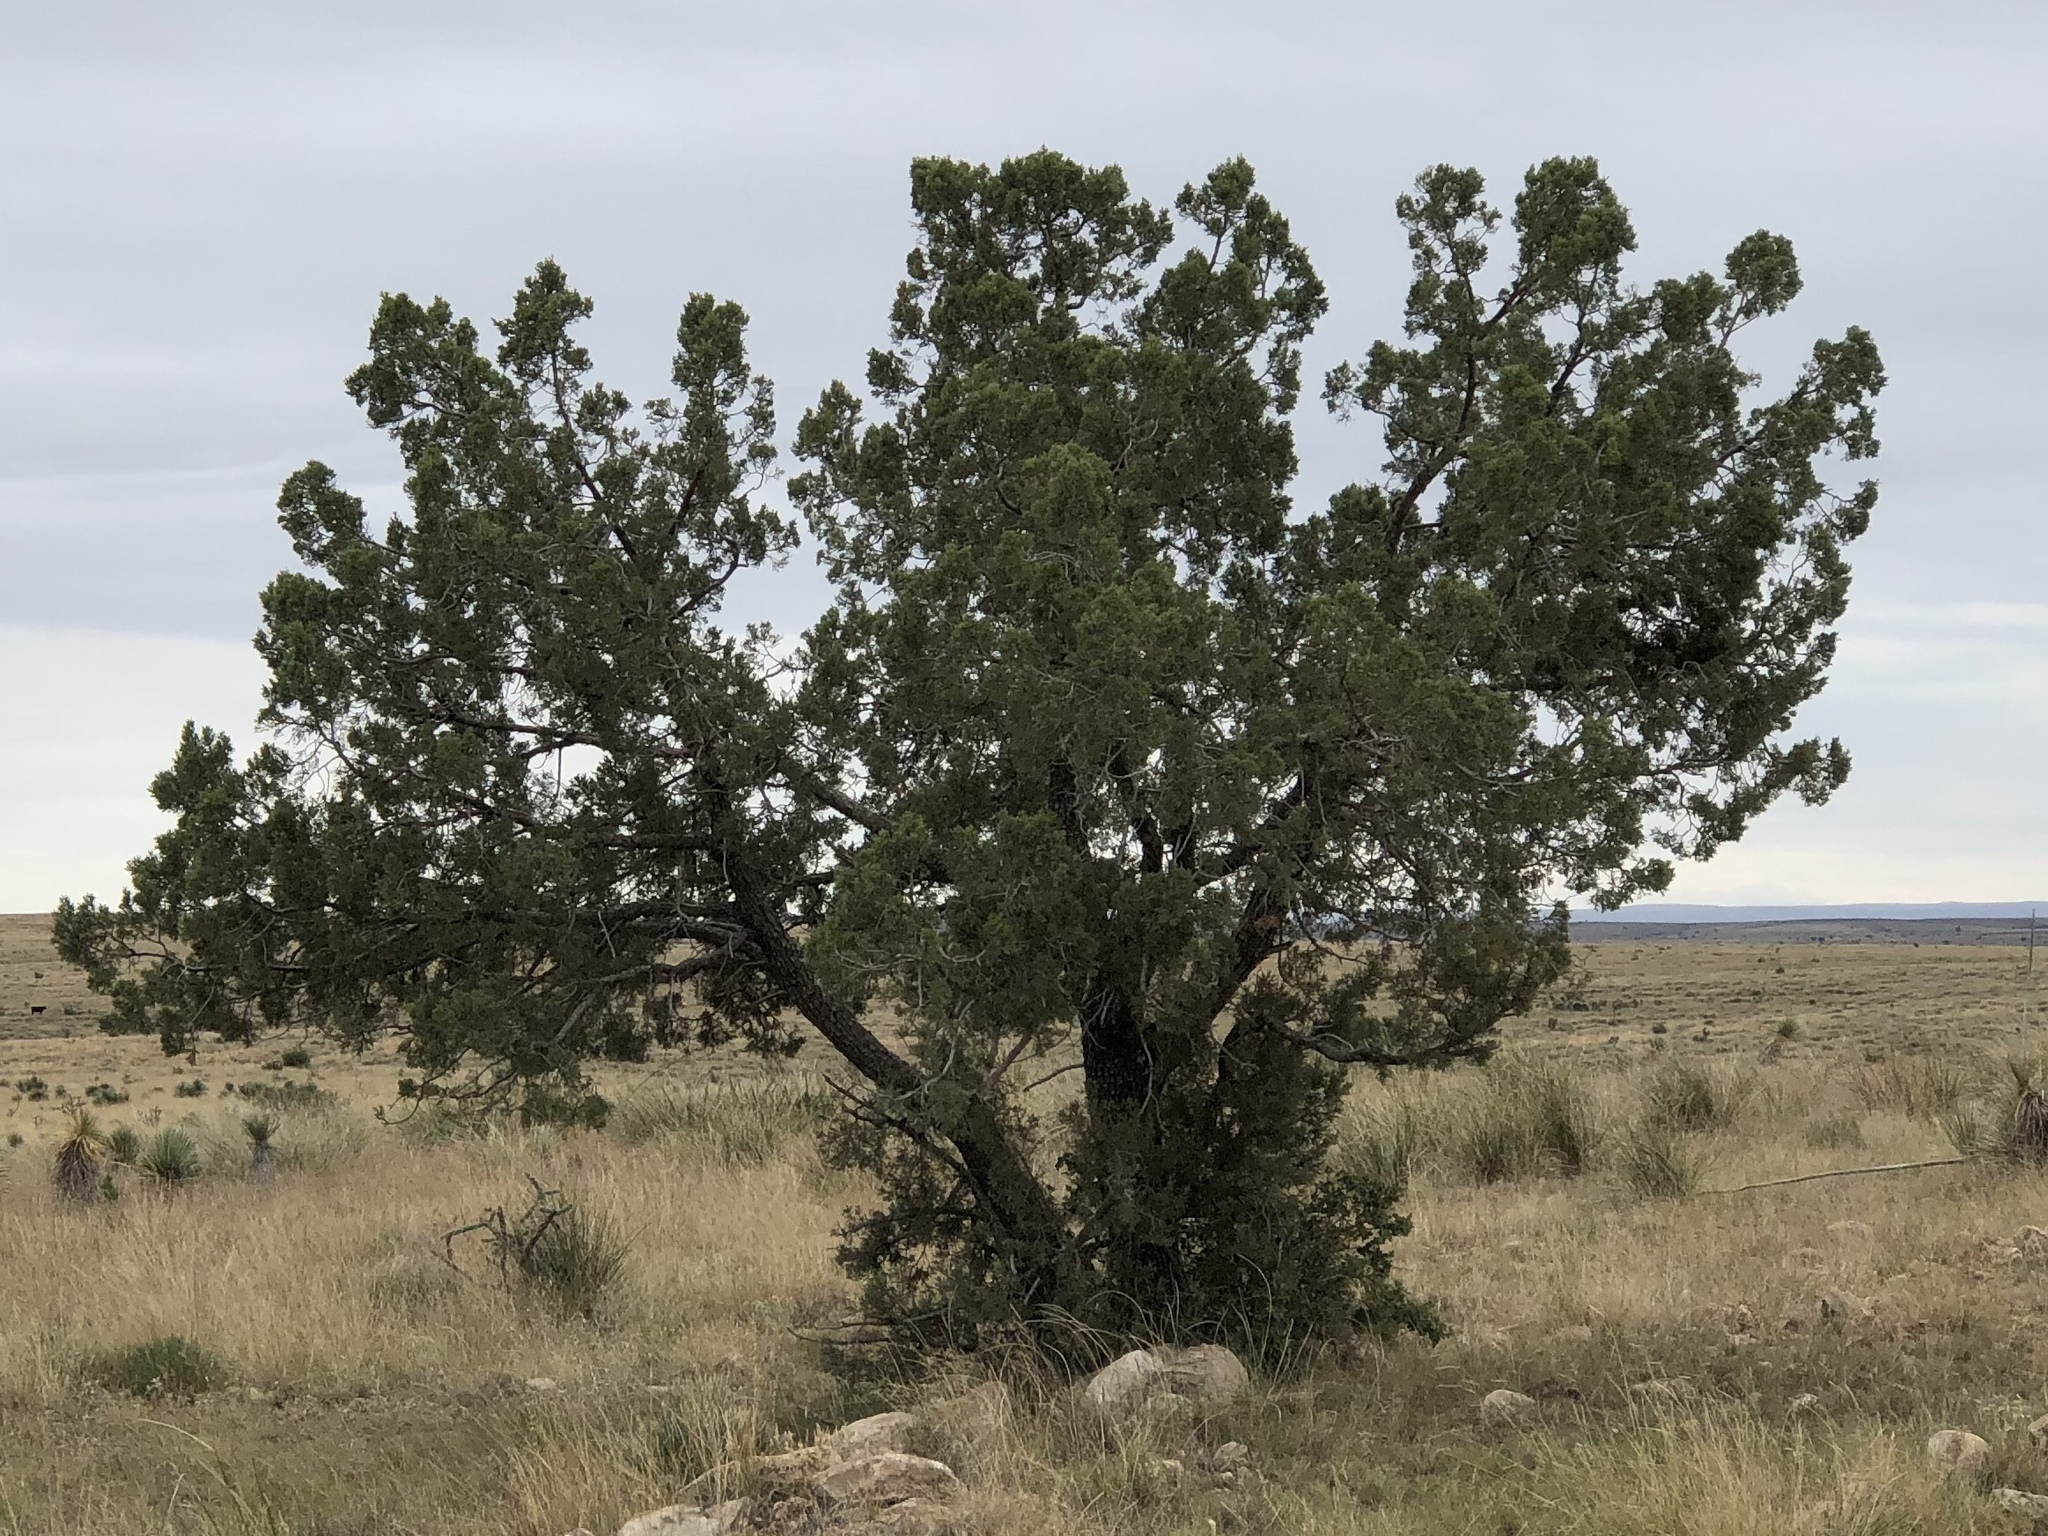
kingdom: Plantae
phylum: Tracheophyta
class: Pinopsida
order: Pinales
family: Cupressaceae
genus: Juniperus
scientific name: Juniperus deppeana
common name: Alligator juniper
